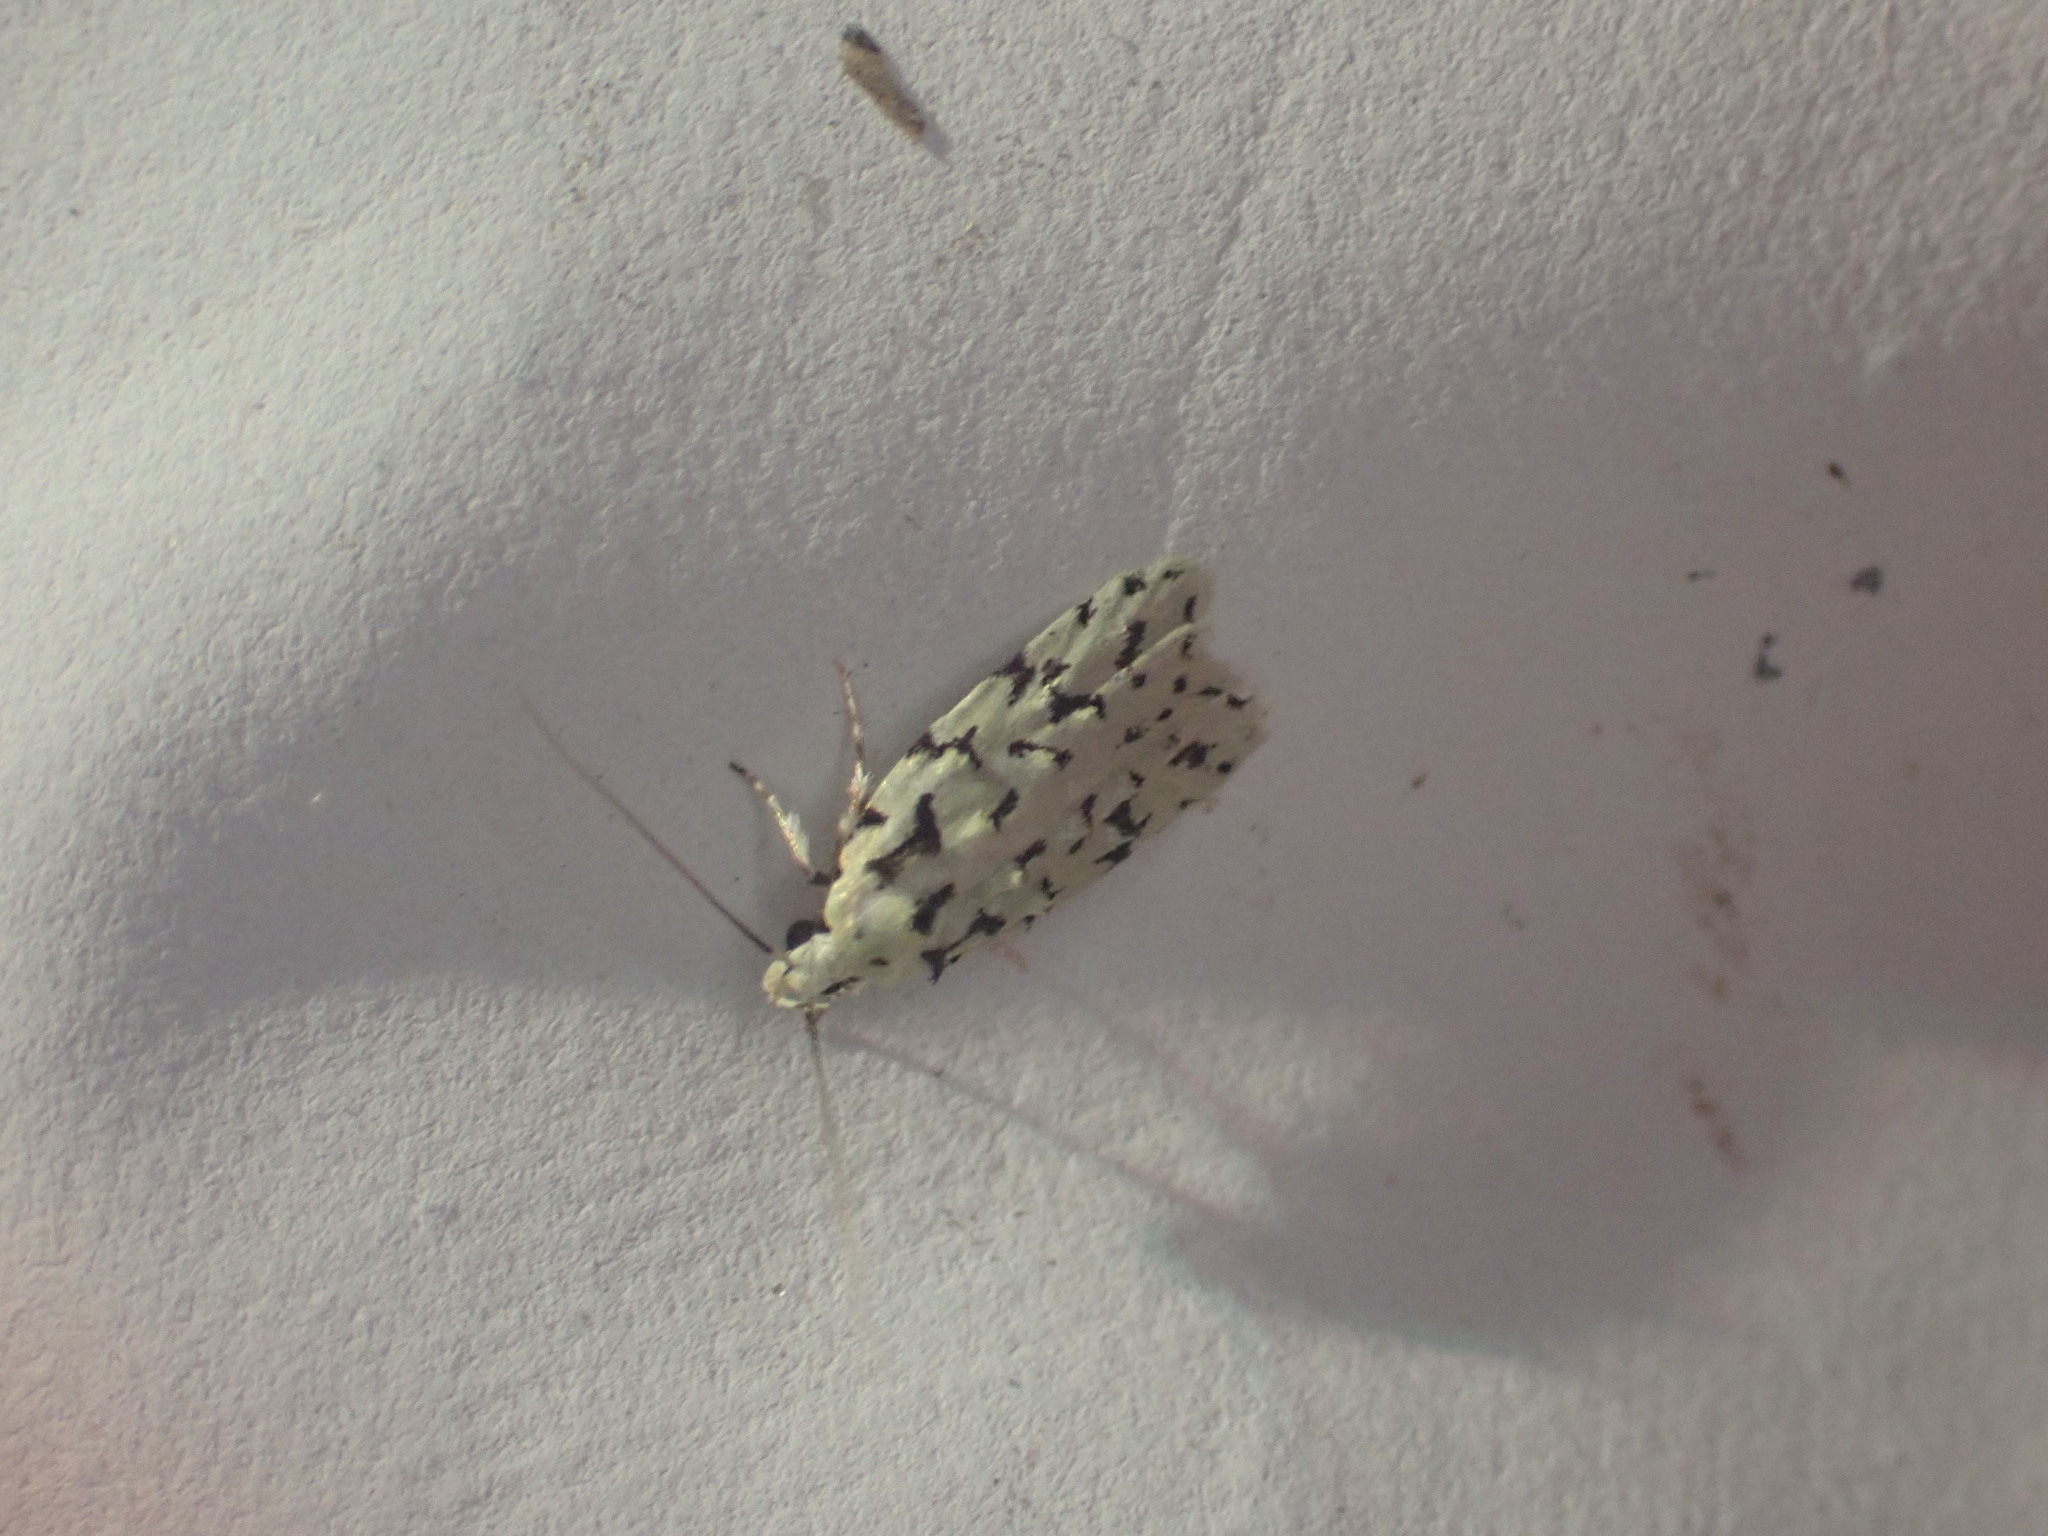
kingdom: Animalia
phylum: Arthropoda
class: Insecta
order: Lepidoptera
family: Oecophoridae
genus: Izatha
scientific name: Izatha peroneanella
